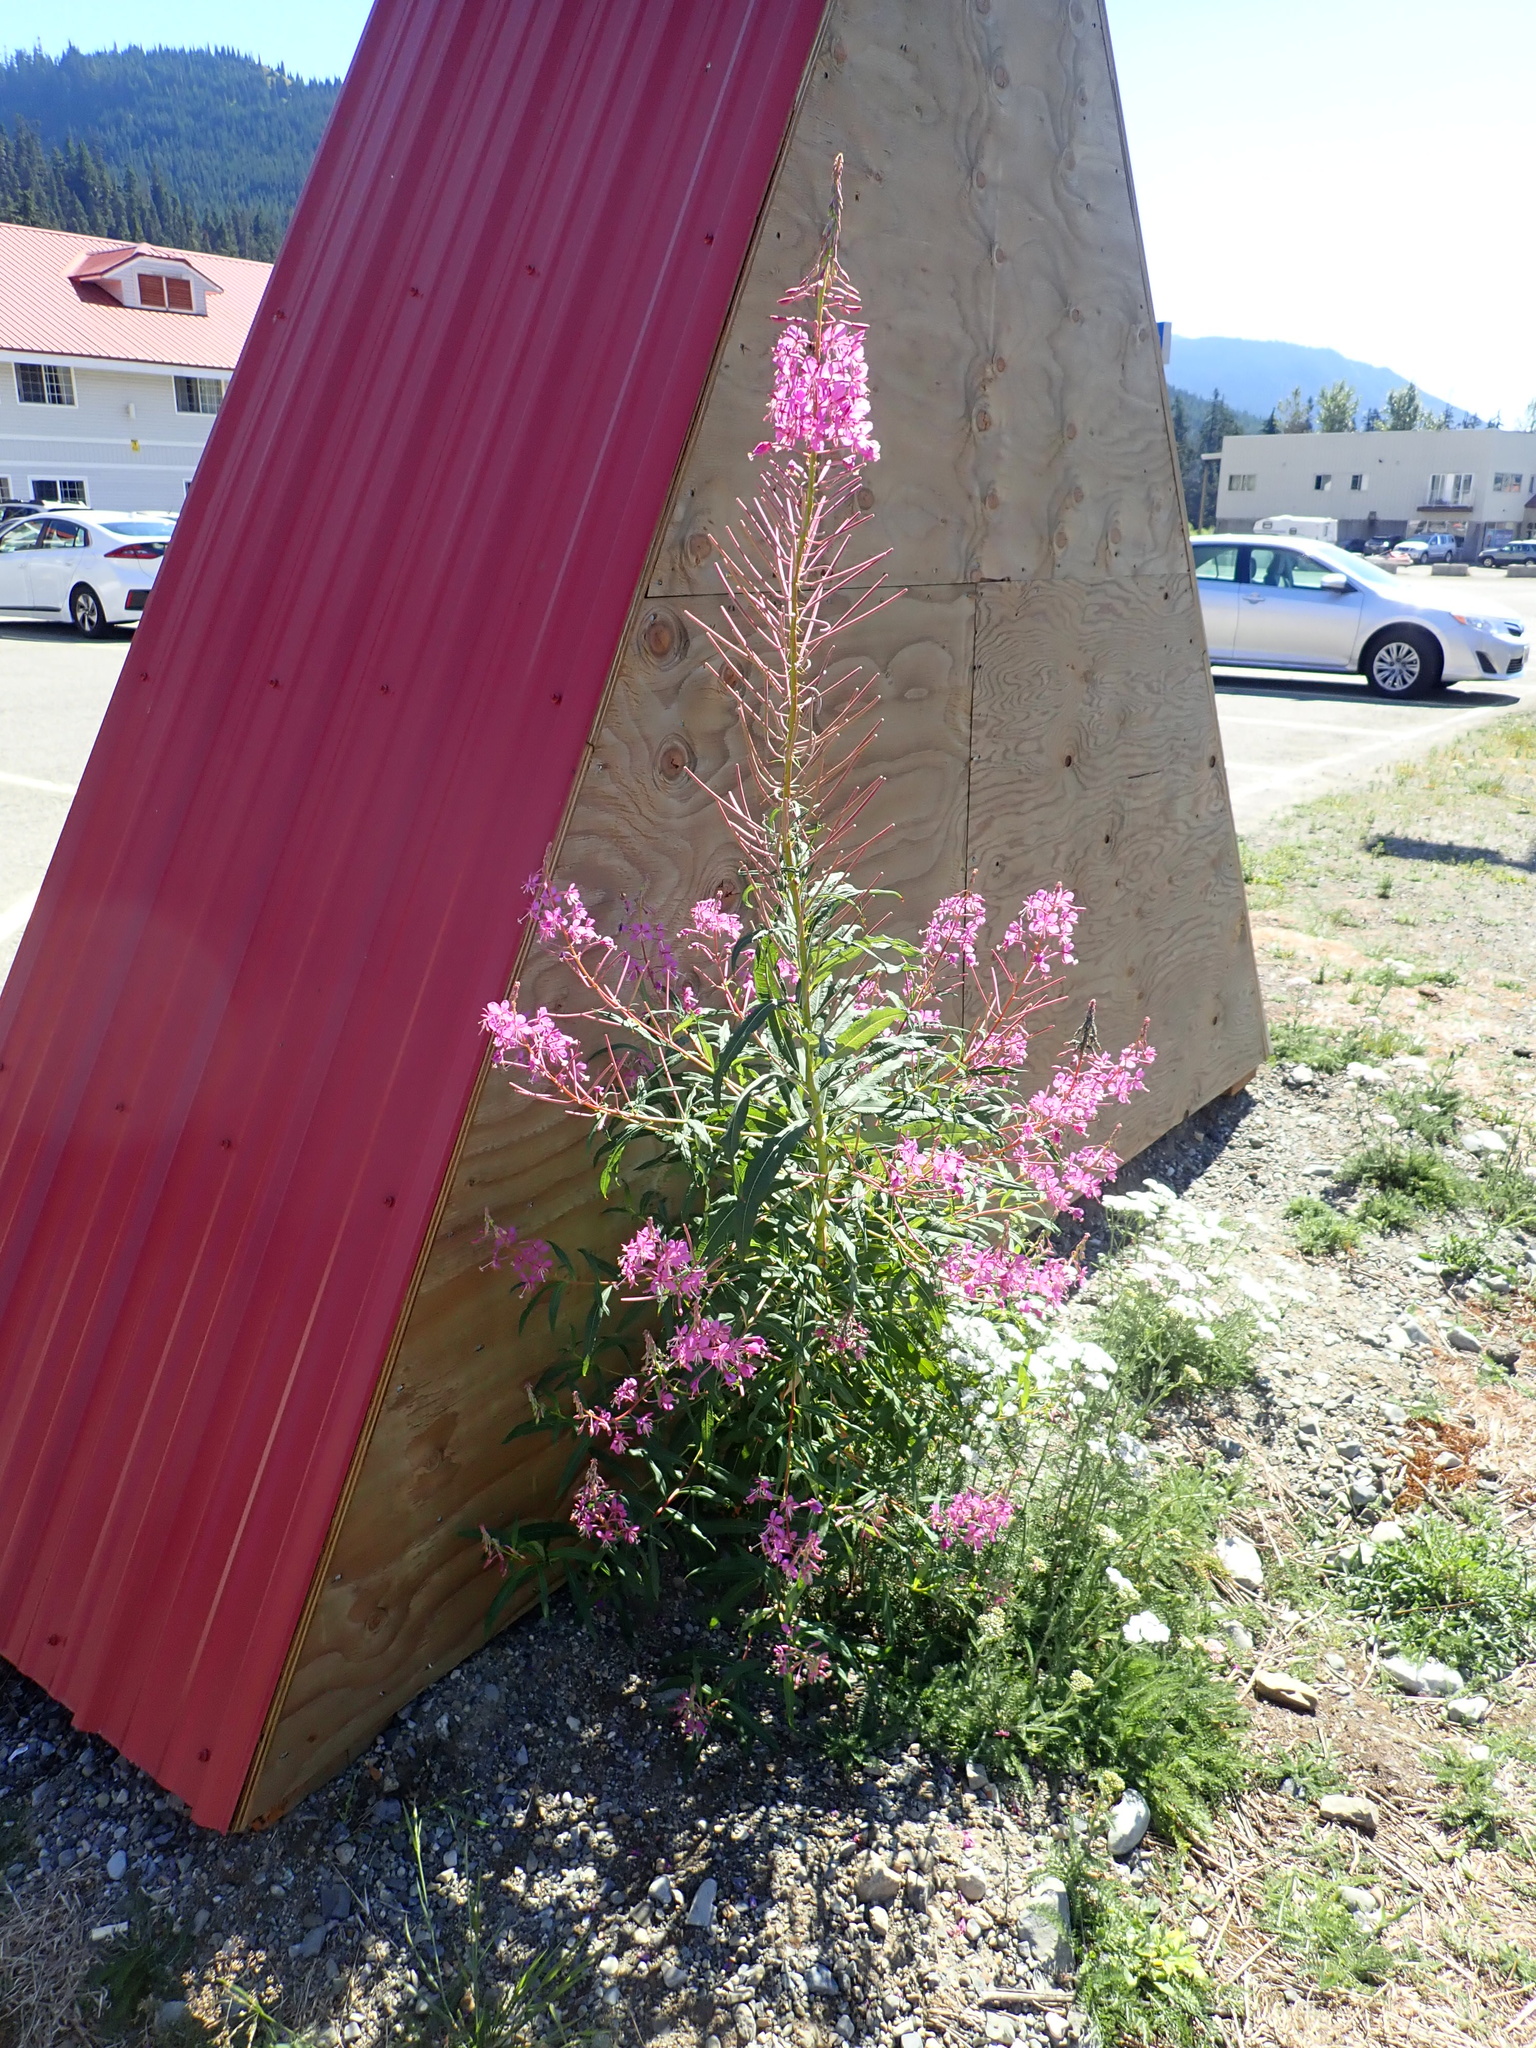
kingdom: Plantae
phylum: Tracheophyta
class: Magnoliopsida
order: Myrtales
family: Onagraceae
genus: Chamaenerion
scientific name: Chamaenerion angustifolium
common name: Fireweed
